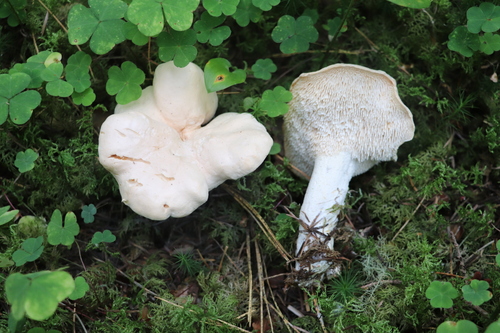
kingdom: Fungi
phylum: Basidiomycota
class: Agaricomycetes
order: Cantharellales
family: Hydnaceae
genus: Hydnum
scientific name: Hydnum repandum
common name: Wood hedgehog
